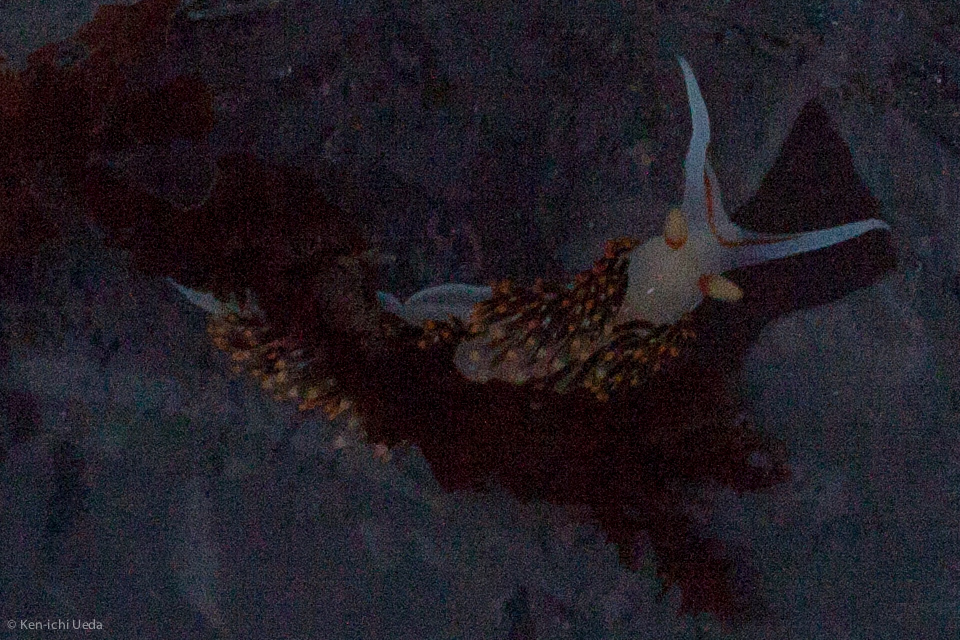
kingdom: Animalia
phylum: Mollusca
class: Gastropoda
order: Nudibranchia
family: Facelinidae
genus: Phidiana
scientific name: Phidiana hiltoni
